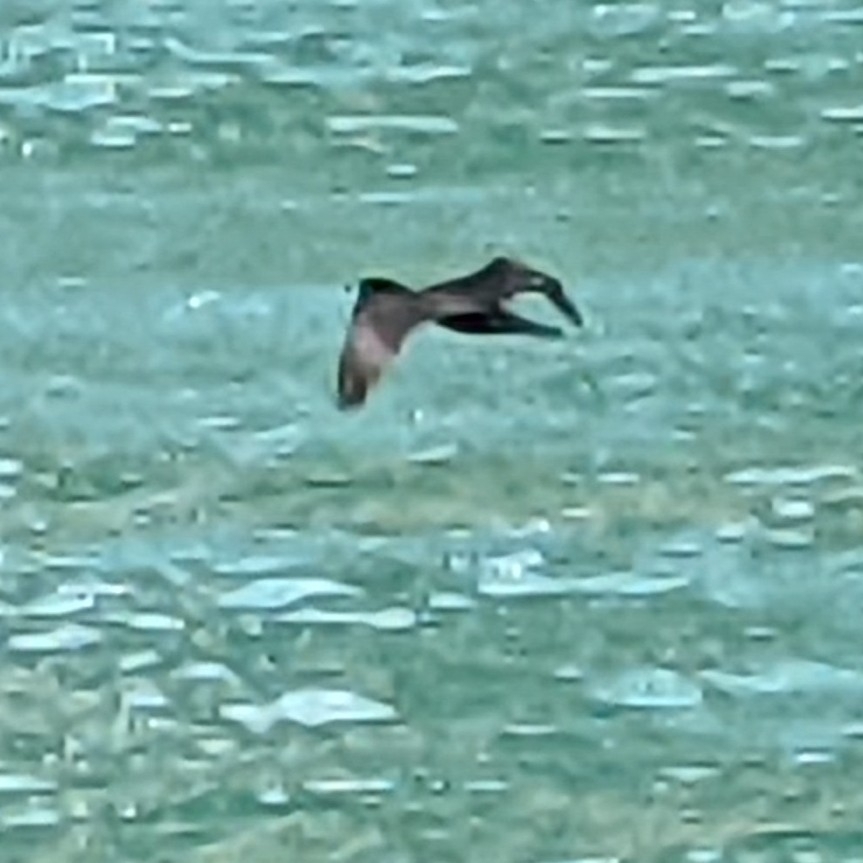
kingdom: Animalia
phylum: Chordata
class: Aves
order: Suliformes
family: Phalacrocoracidae
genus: Phalacrocorax
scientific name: Phalacrocorax auritus
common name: Double-crested cormorant
